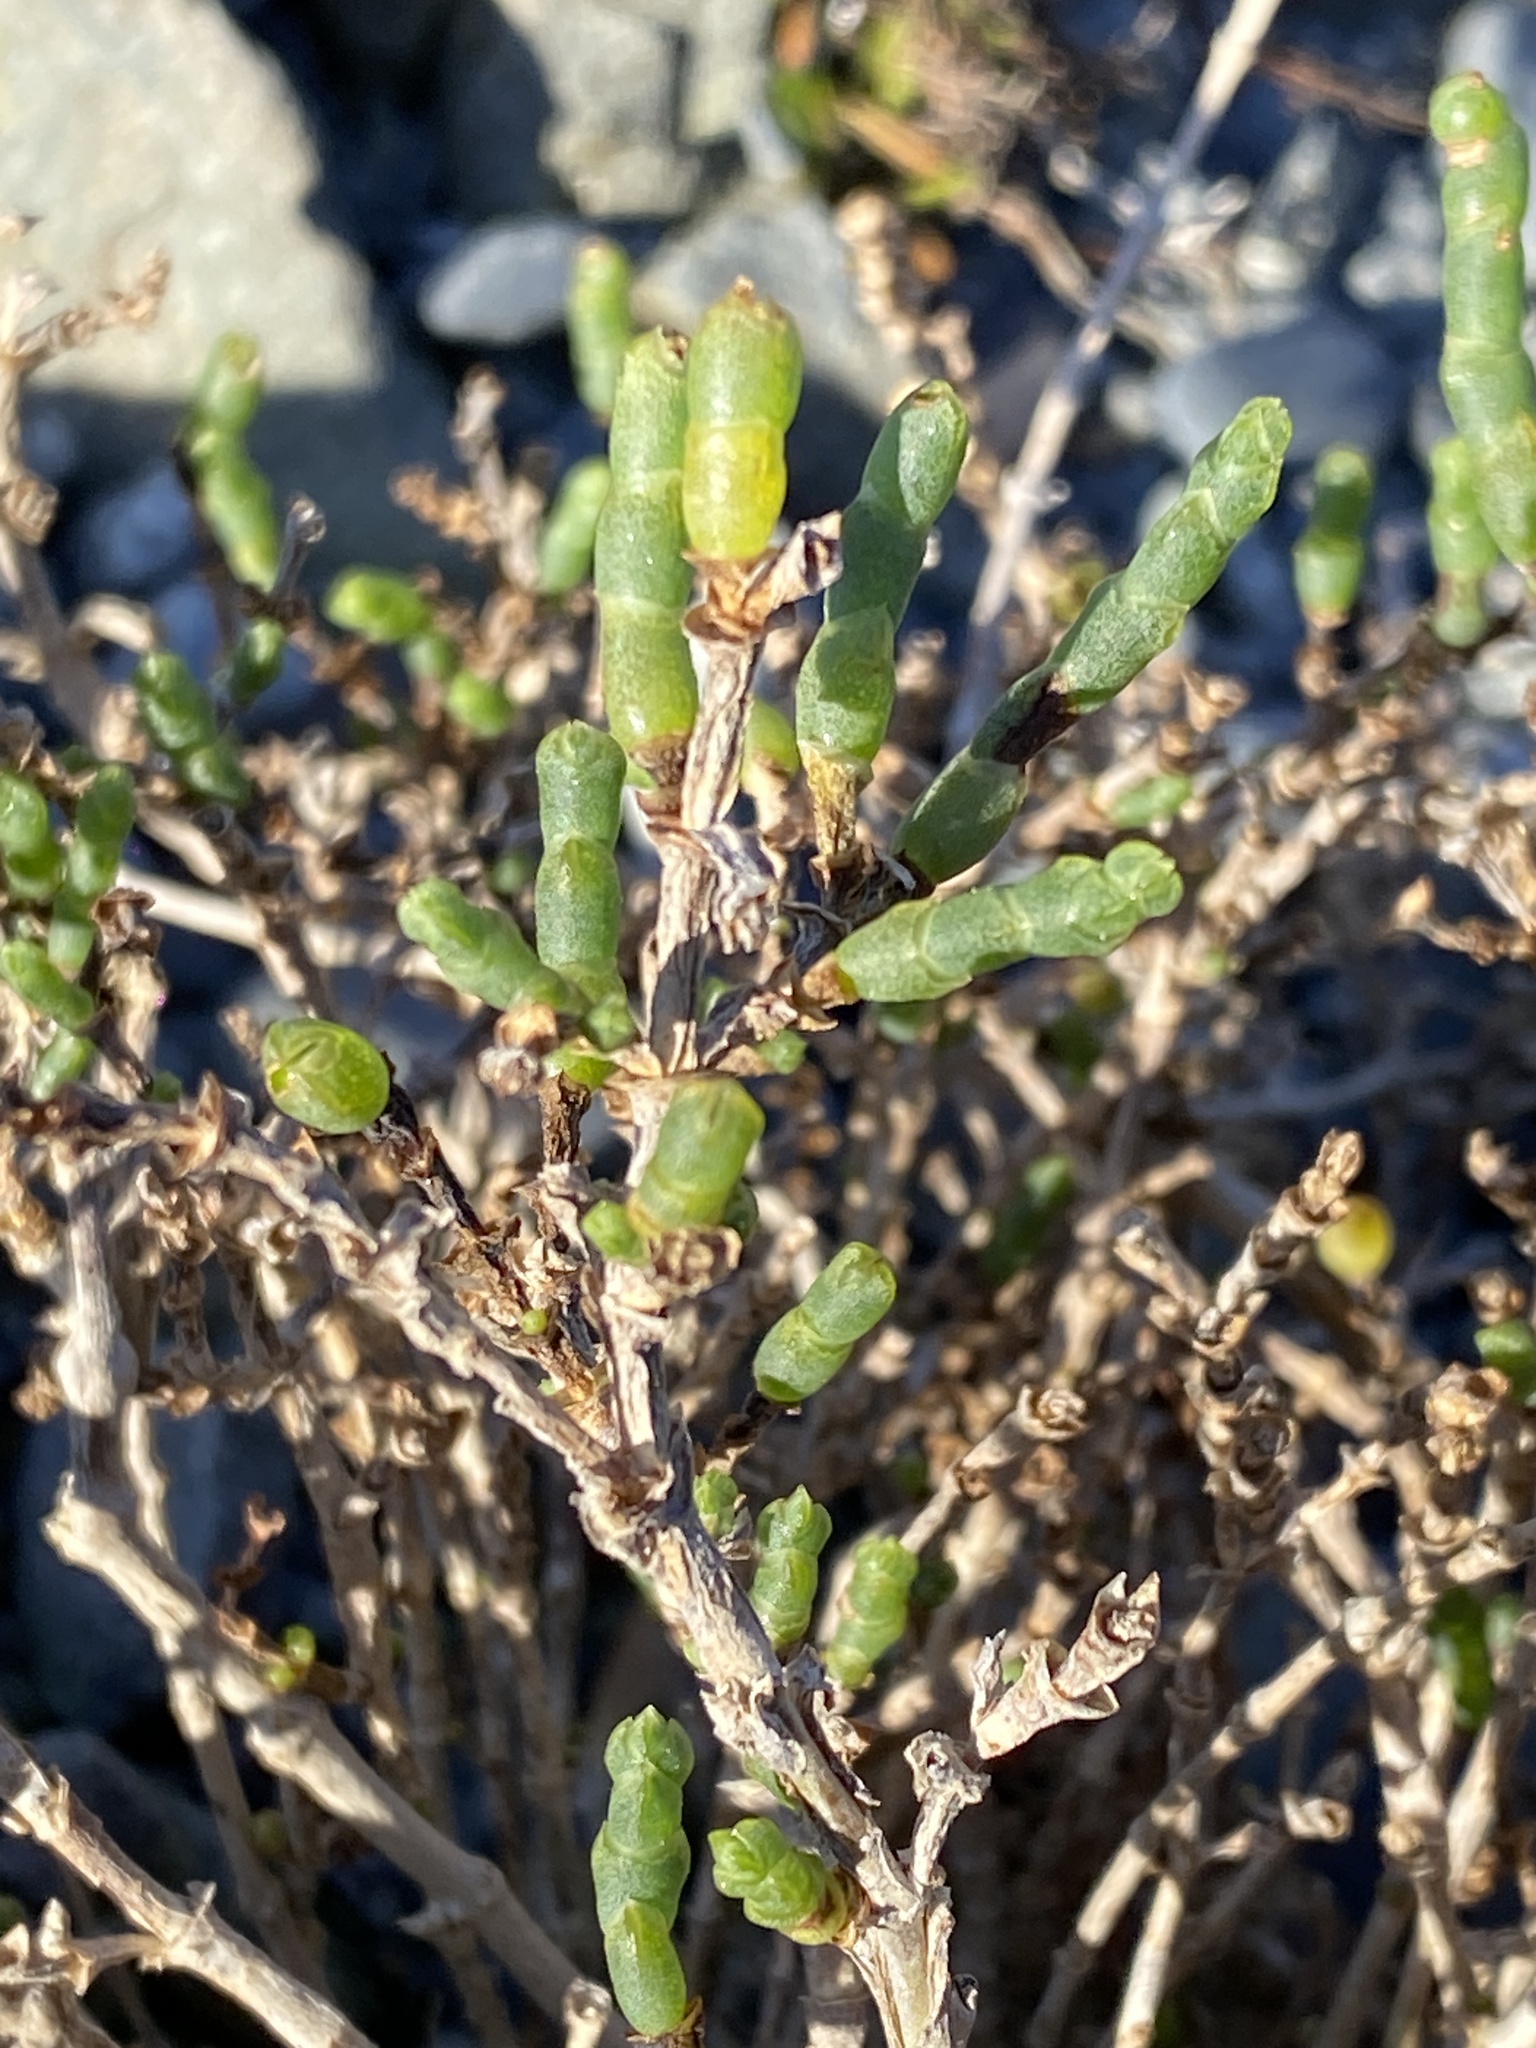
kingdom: Plantae
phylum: Tracheophyta
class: Magnoliopsida
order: Caryophyllales
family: Amaranthaceae
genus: Salicornia
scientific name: Salicornia quinqueflora
